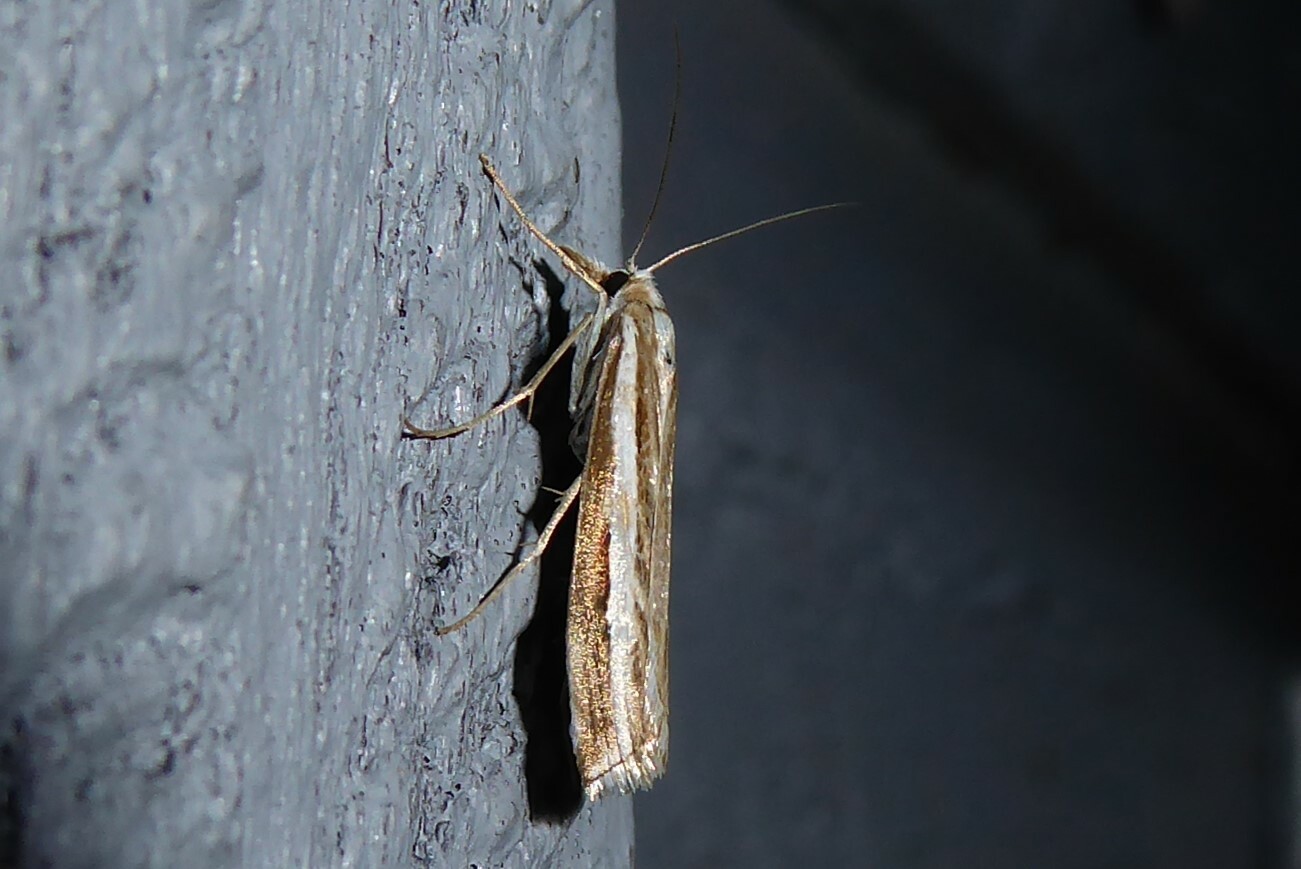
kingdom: Animalia
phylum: Arthropoda
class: Insecta
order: Lepidoptera
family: Crambidae
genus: Orocrambus
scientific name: Orocrambus vittellus
